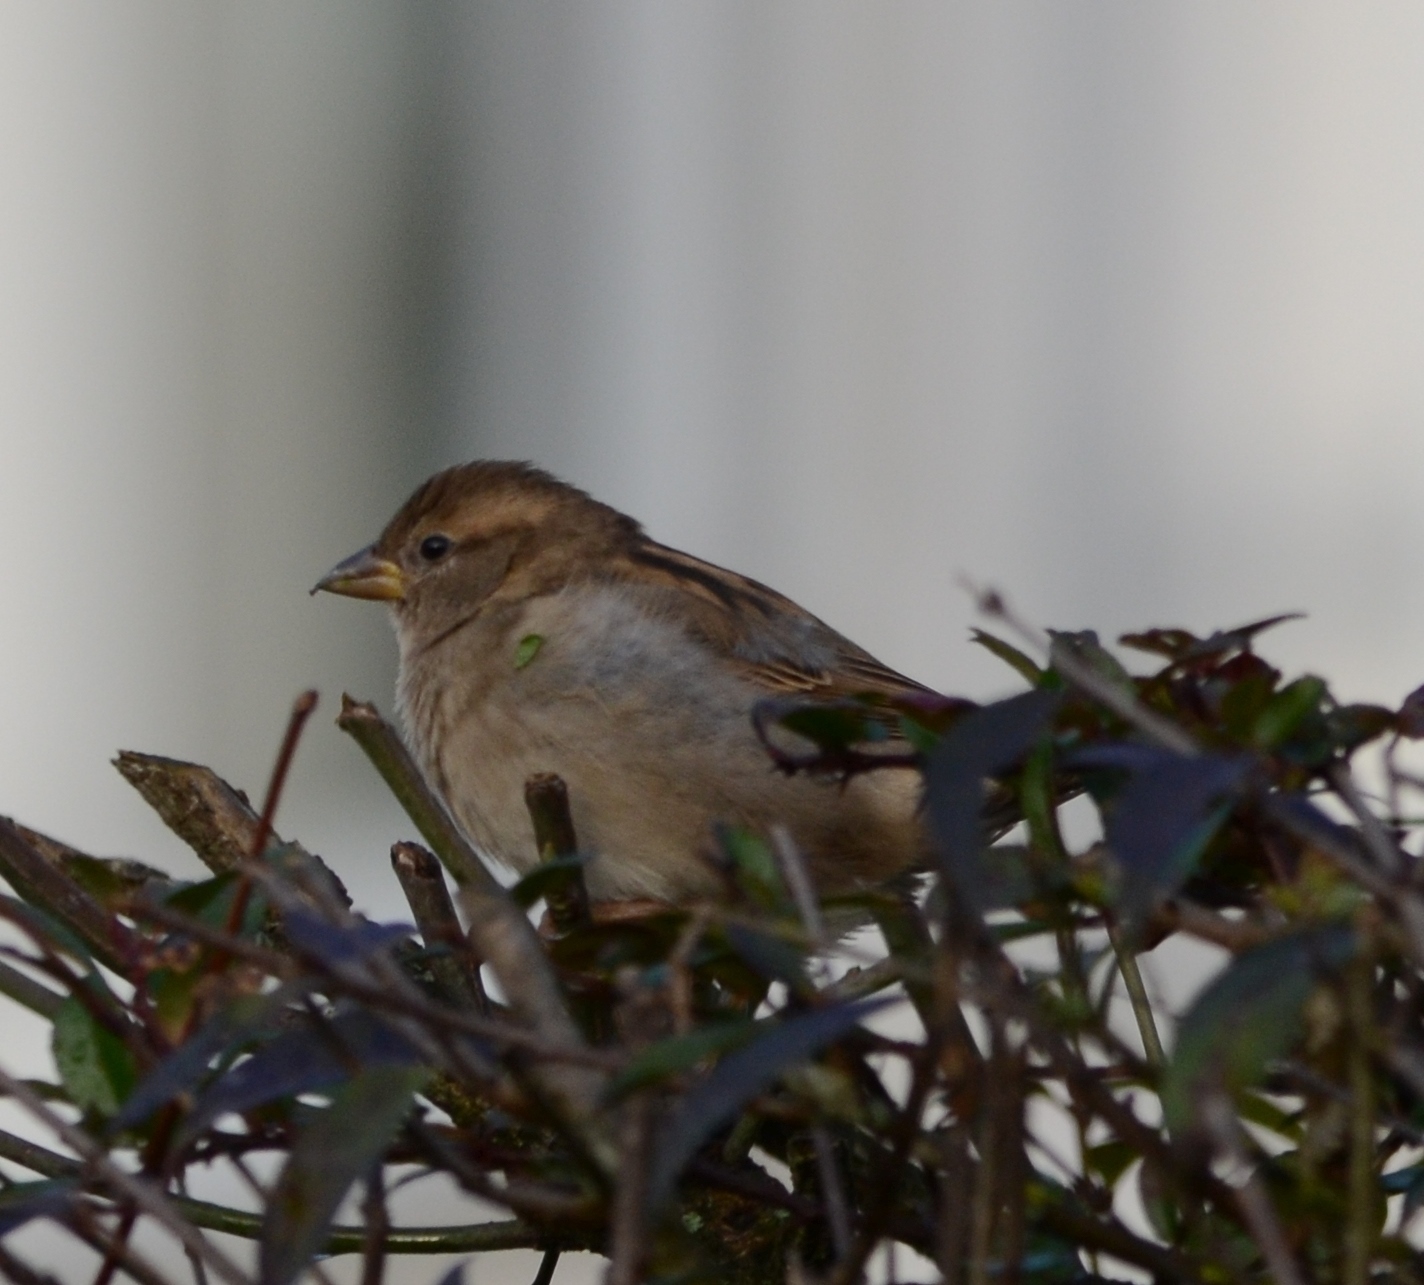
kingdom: Animalia
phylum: Chordata
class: Aves
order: Passeriformes
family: Passeridae
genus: Passer
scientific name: Passer domesticus
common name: House sparrow
